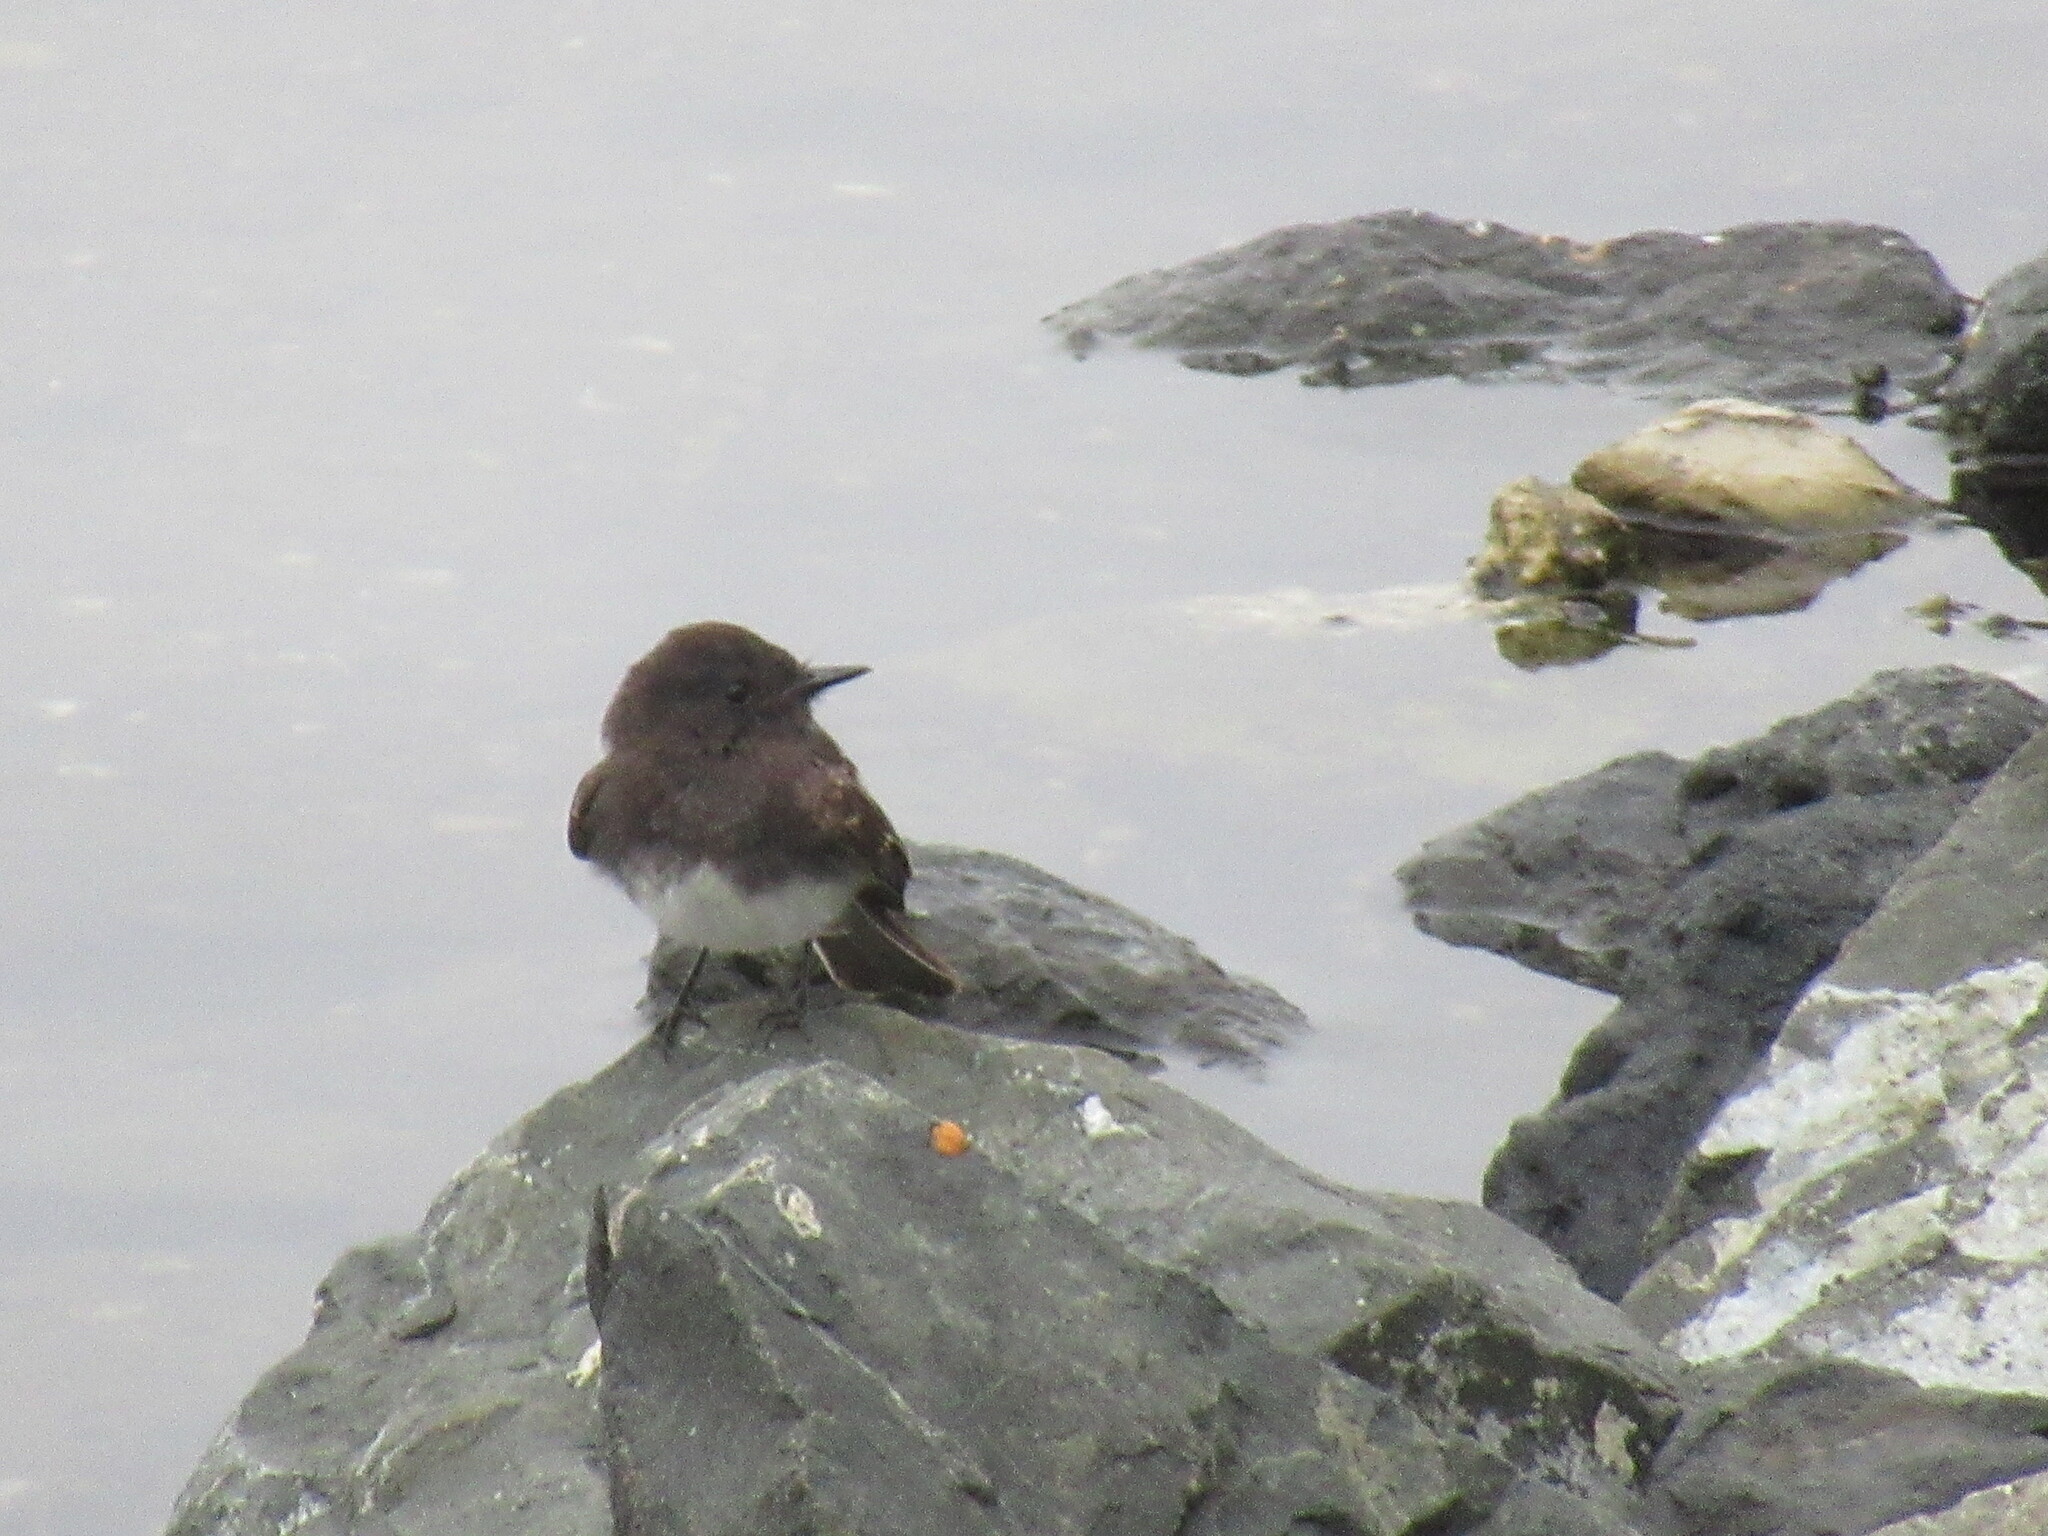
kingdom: Animalia
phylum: Chordata
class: Aves
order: Passeriformes
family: Tyrannidae
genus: Sayornis
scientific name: Sayornis nigricans
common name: Black phoebe
